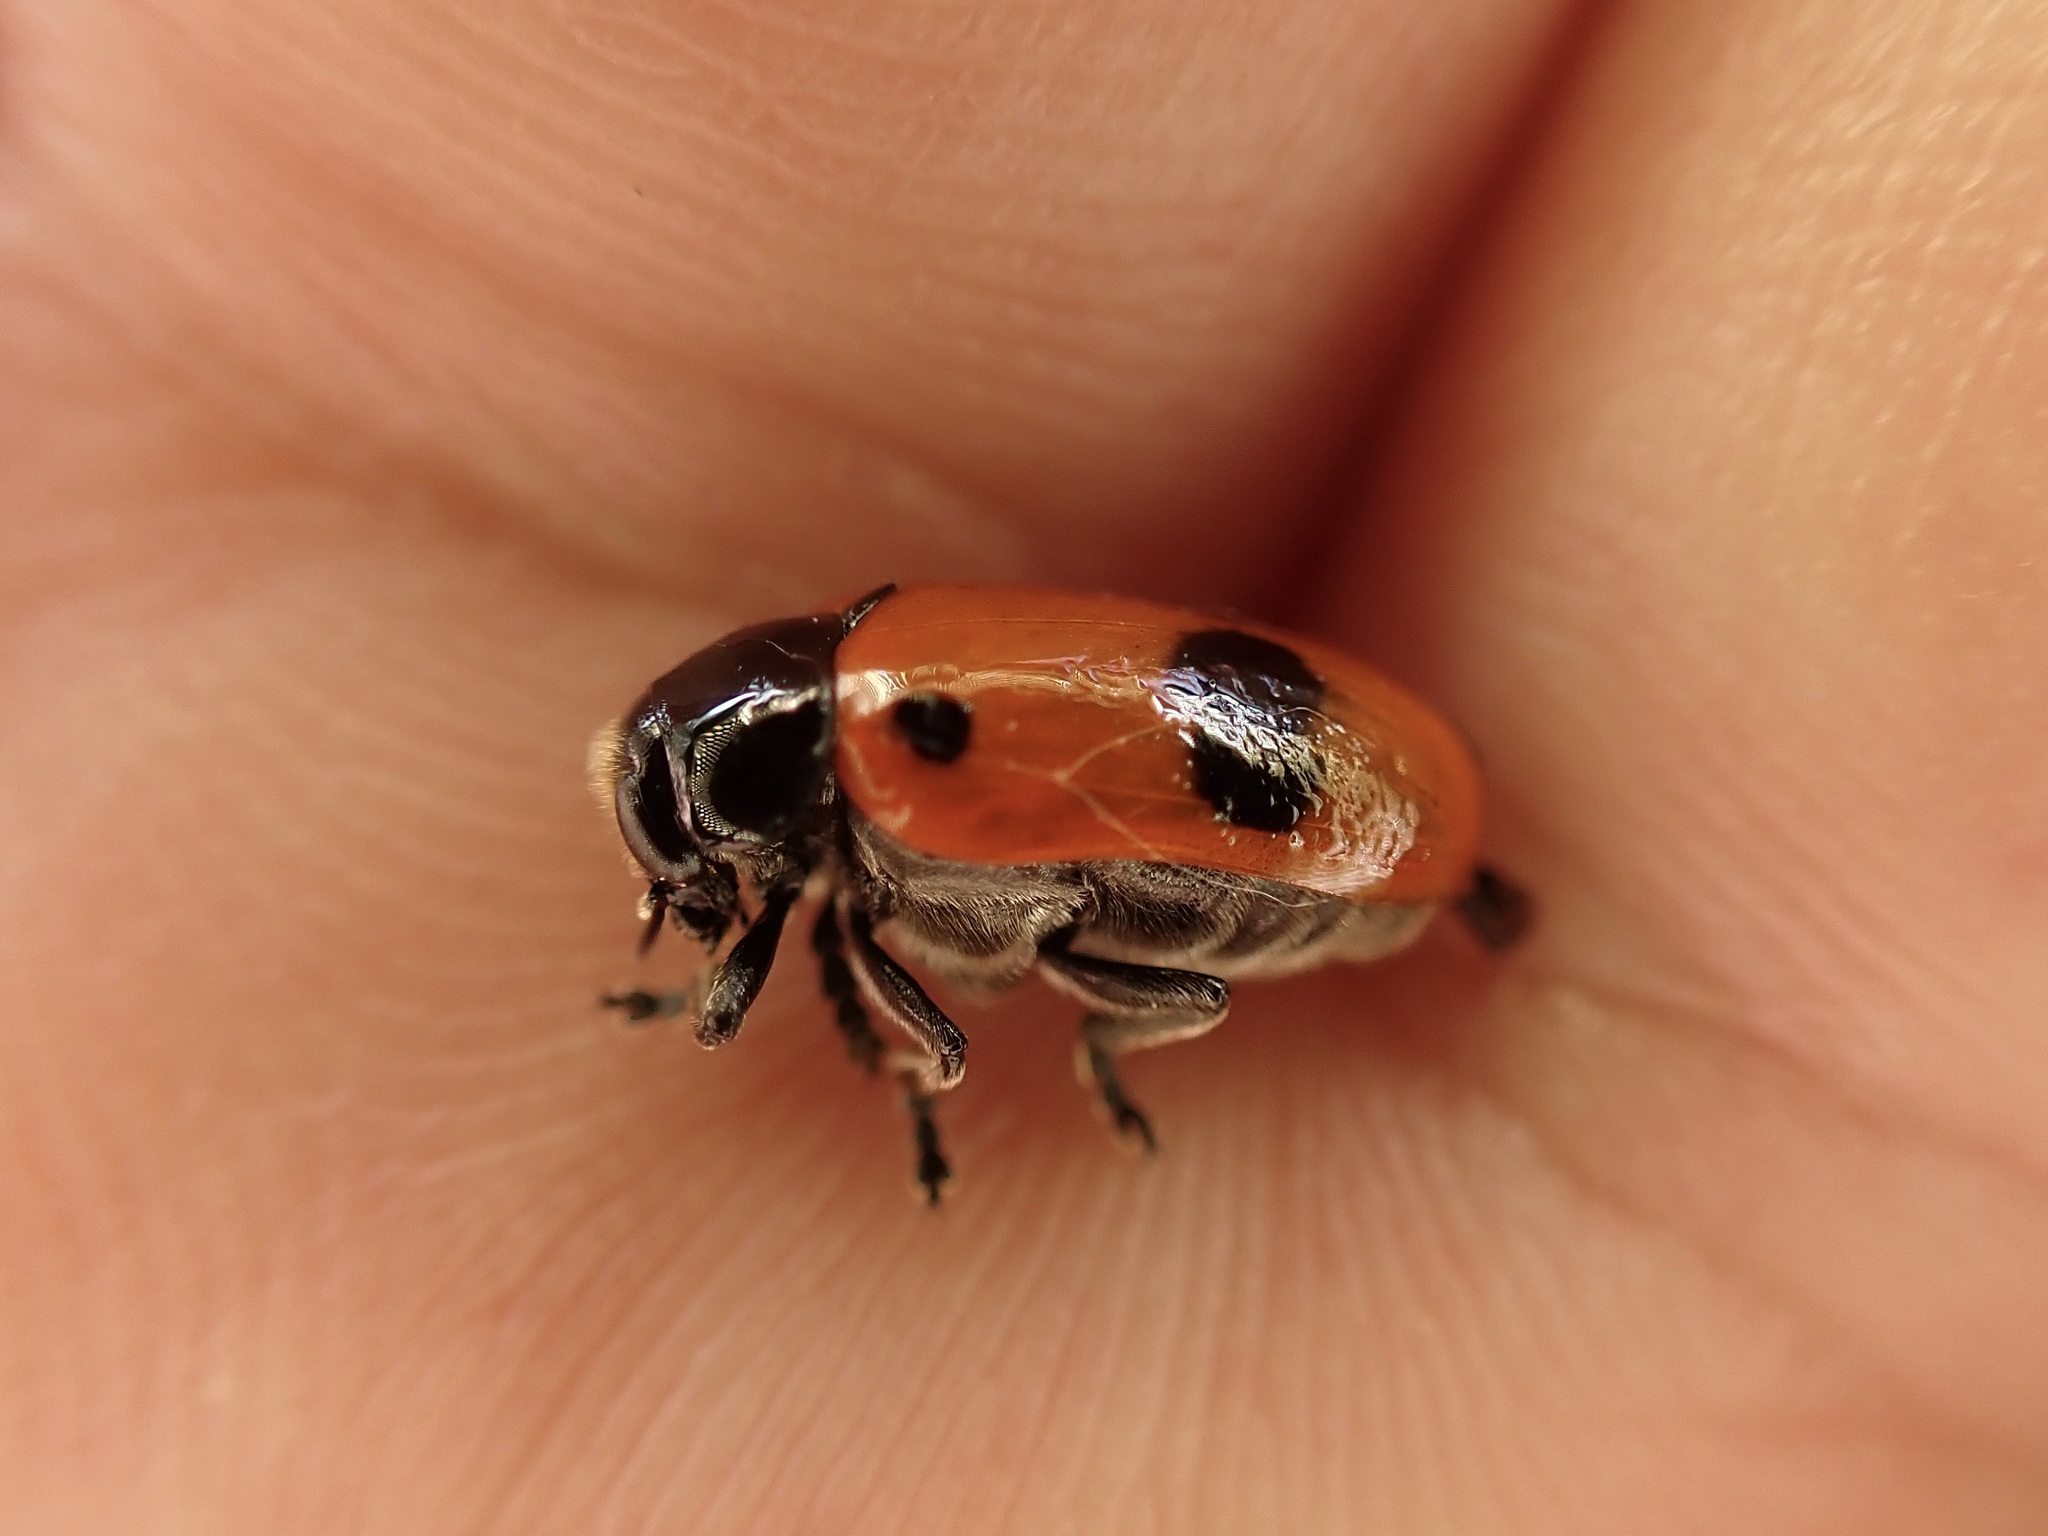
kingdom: Animalia
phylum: Arthropoda
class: Insecta
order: Coleoptera
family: Chrysomelidae
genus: Clytra
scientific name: Clytra laeviuscula
